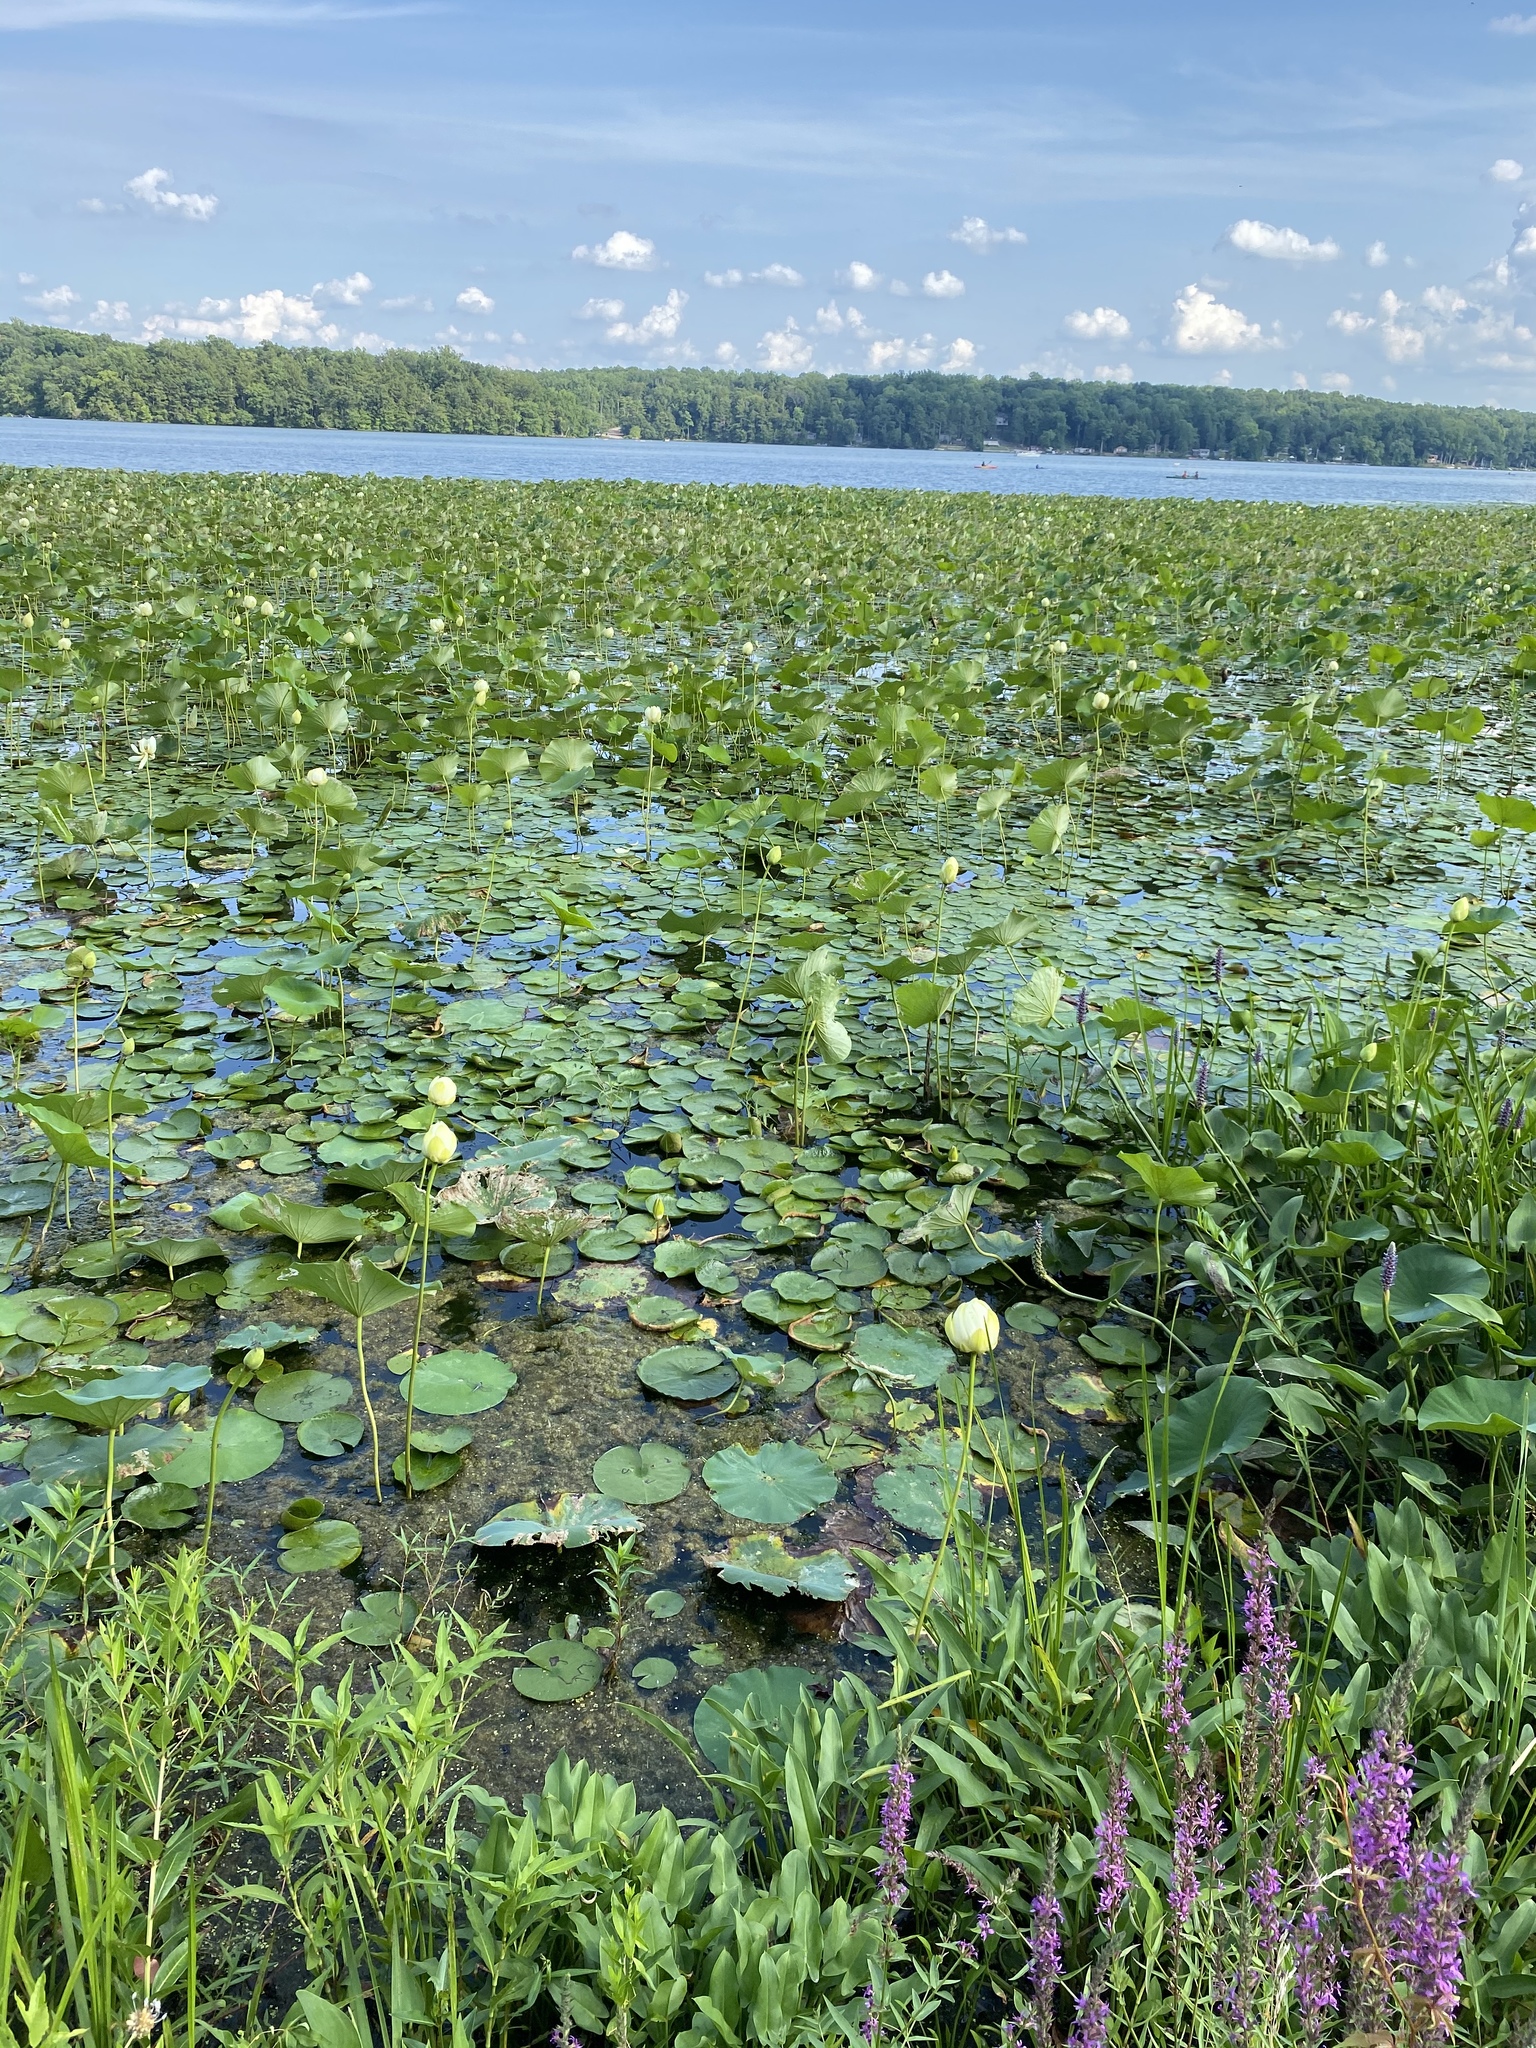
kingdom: Plantae
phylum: Tracheophyta
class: Magnoliopsida
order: Proteales
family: Nelumbonaceae
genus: Nelumbo
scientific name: Nelumbo lutea
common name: American lotus
